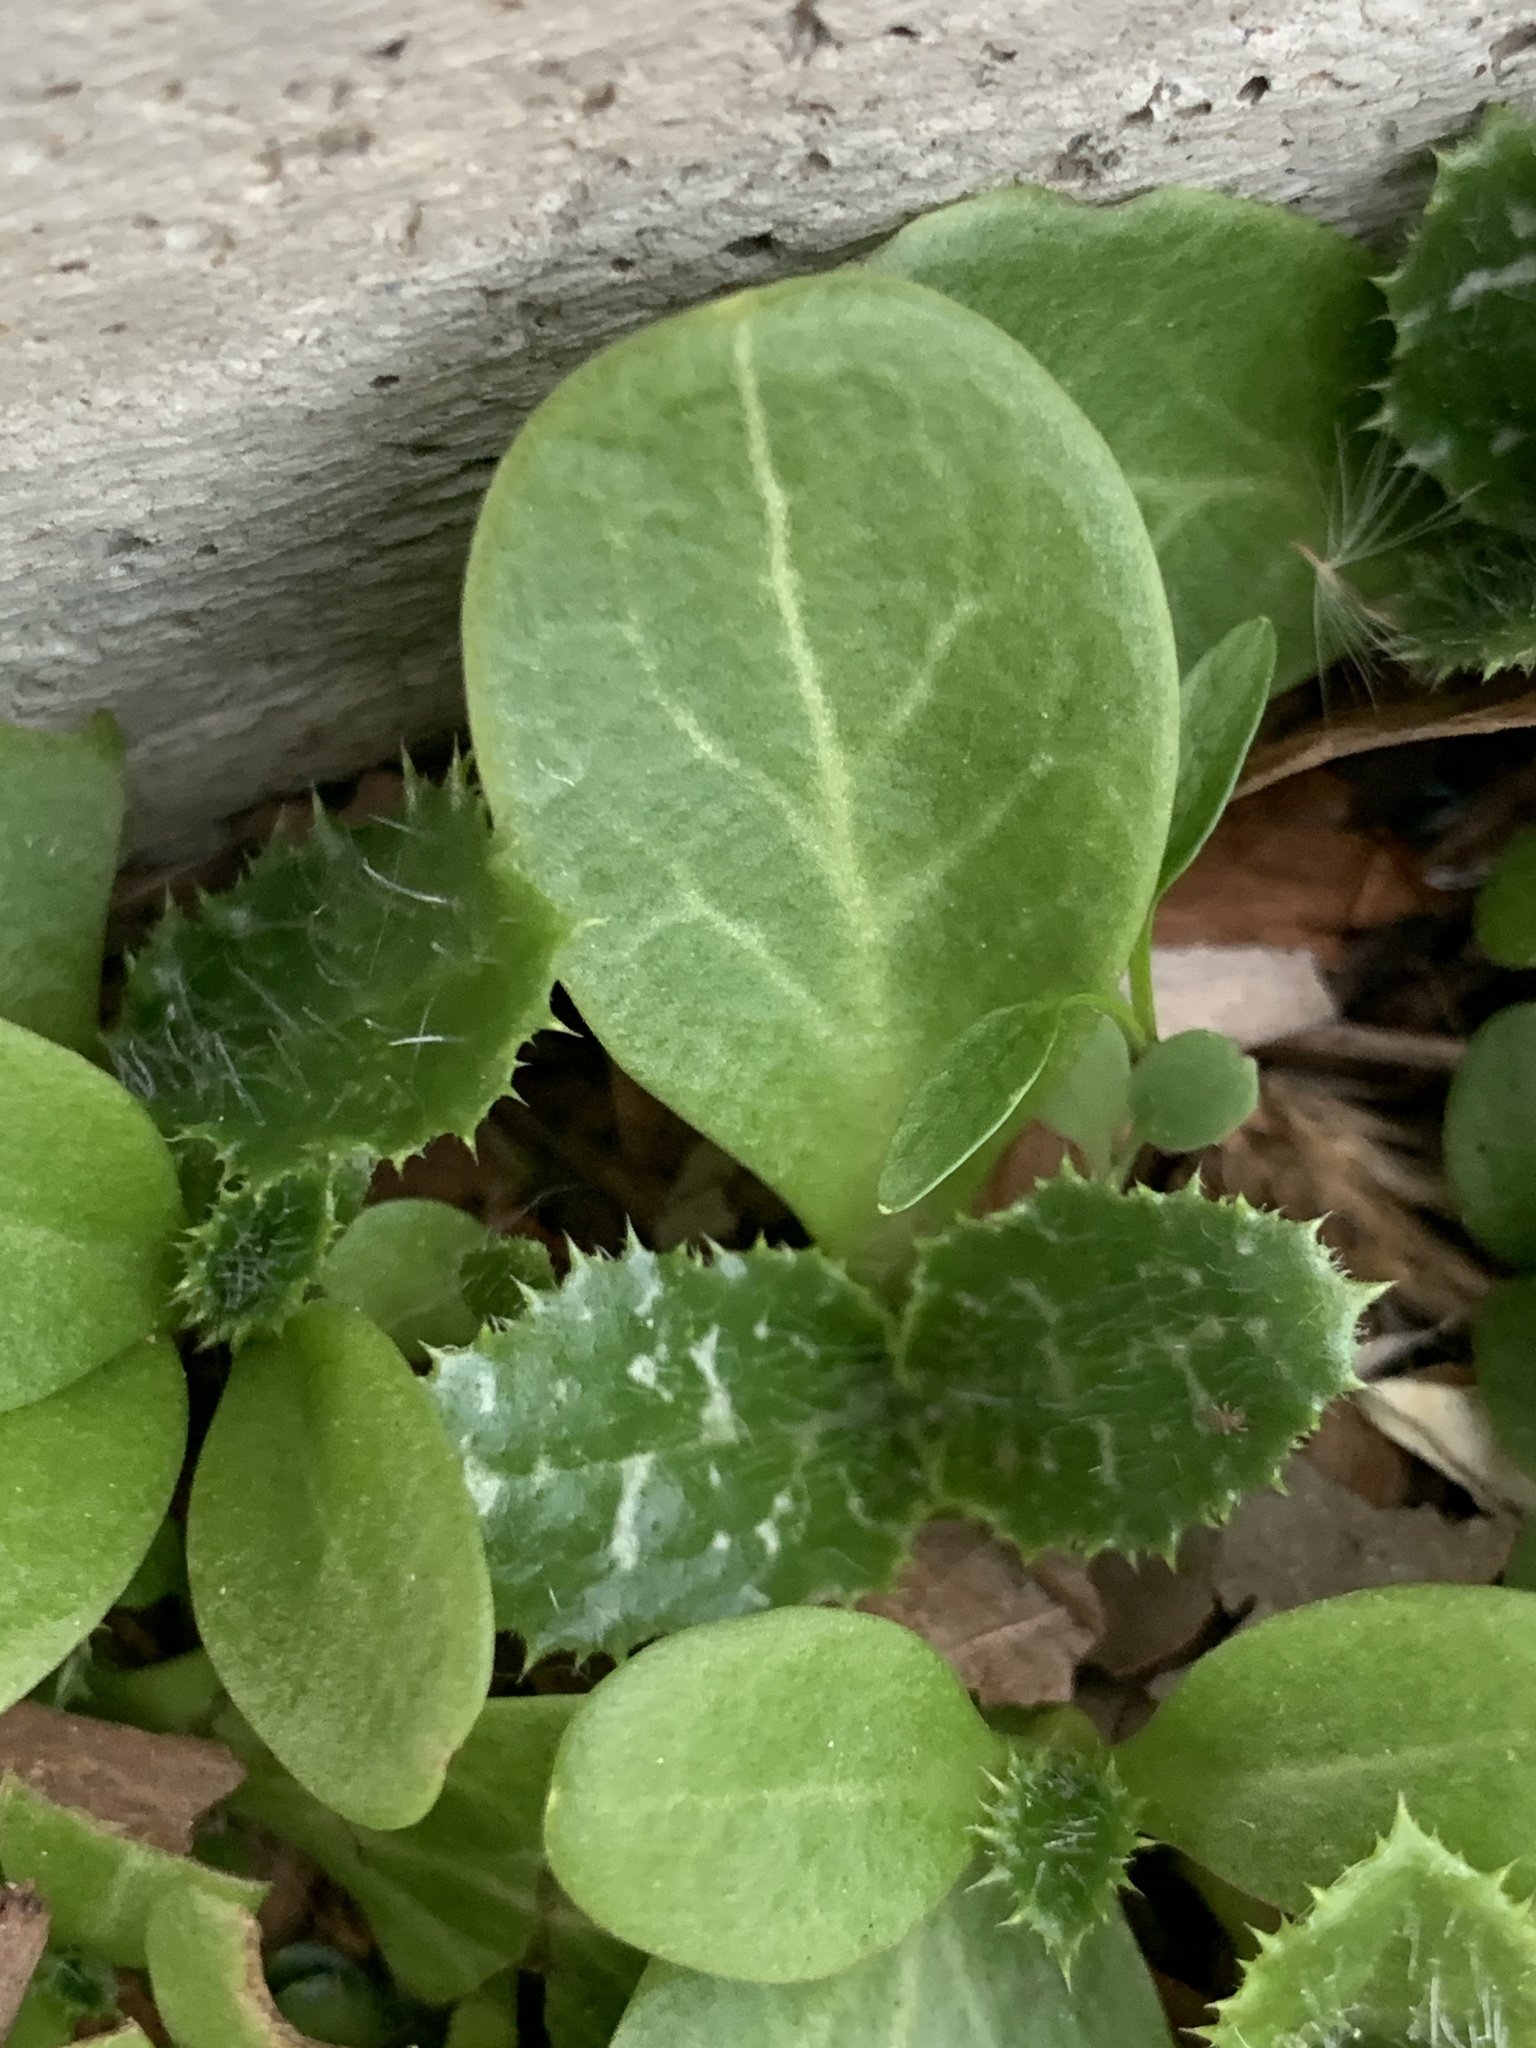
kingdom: Plantae
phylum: Tracheophyta
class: Magnoliopsida
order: Asterales
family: Asteraceae
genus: Silybum
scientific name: Silybum marianum
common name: Milk thistle
